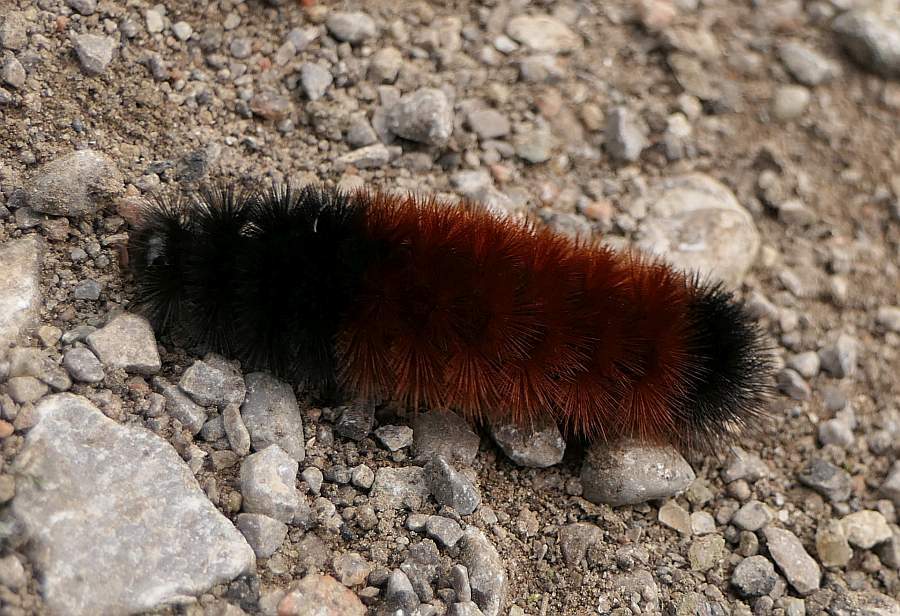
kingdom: Animalia
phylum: Arthropoda
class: Insecta
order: Lepidoptera
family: Erebidae
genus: Pyrrharctia
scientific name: Pyrrharctia isabella
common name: Isabella tiger moth
